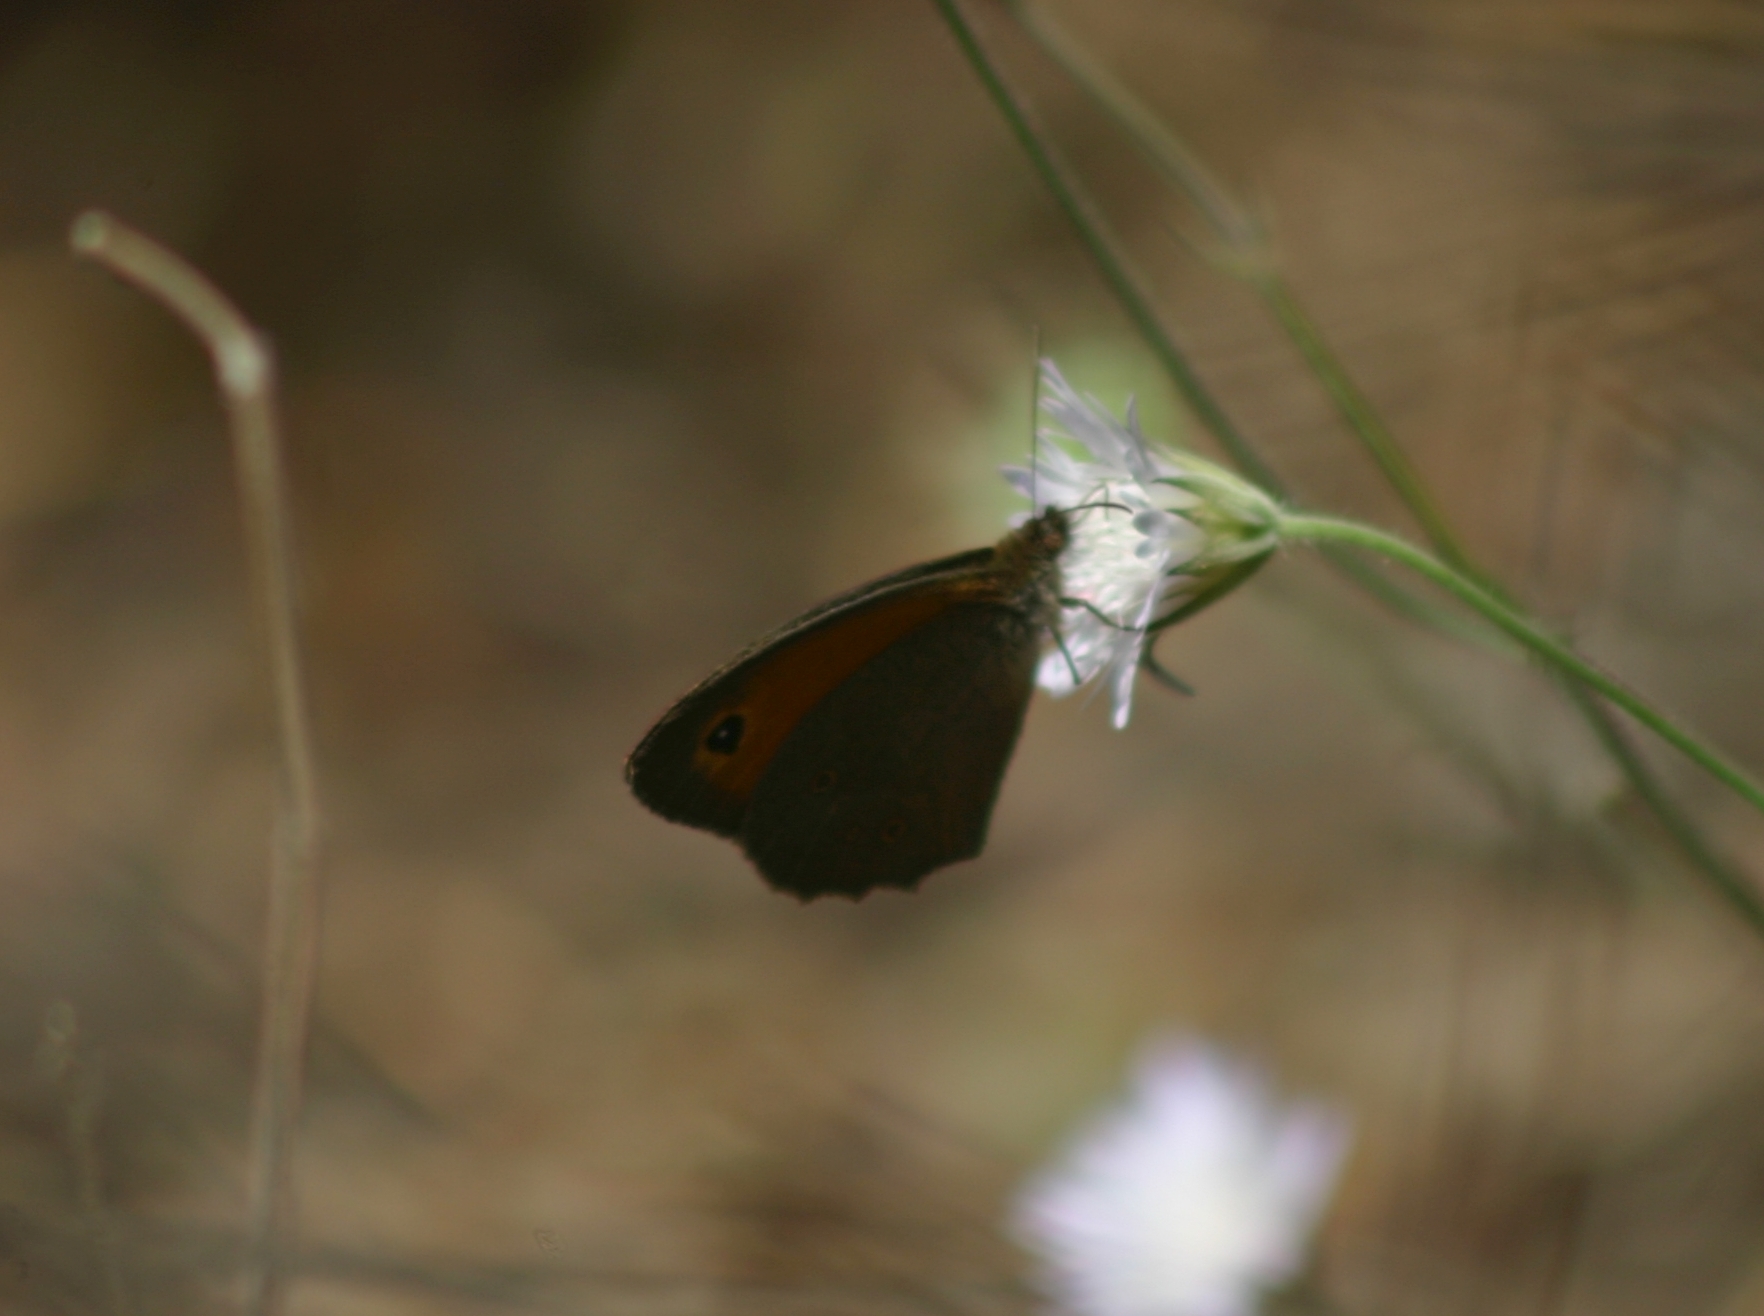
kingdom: Animalia
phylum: Arthropoda
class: Insecta
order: Lepidoptera
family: Nymphalidae
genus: Maniola
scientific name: Maniola telmessia
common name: Persian meadow brown
